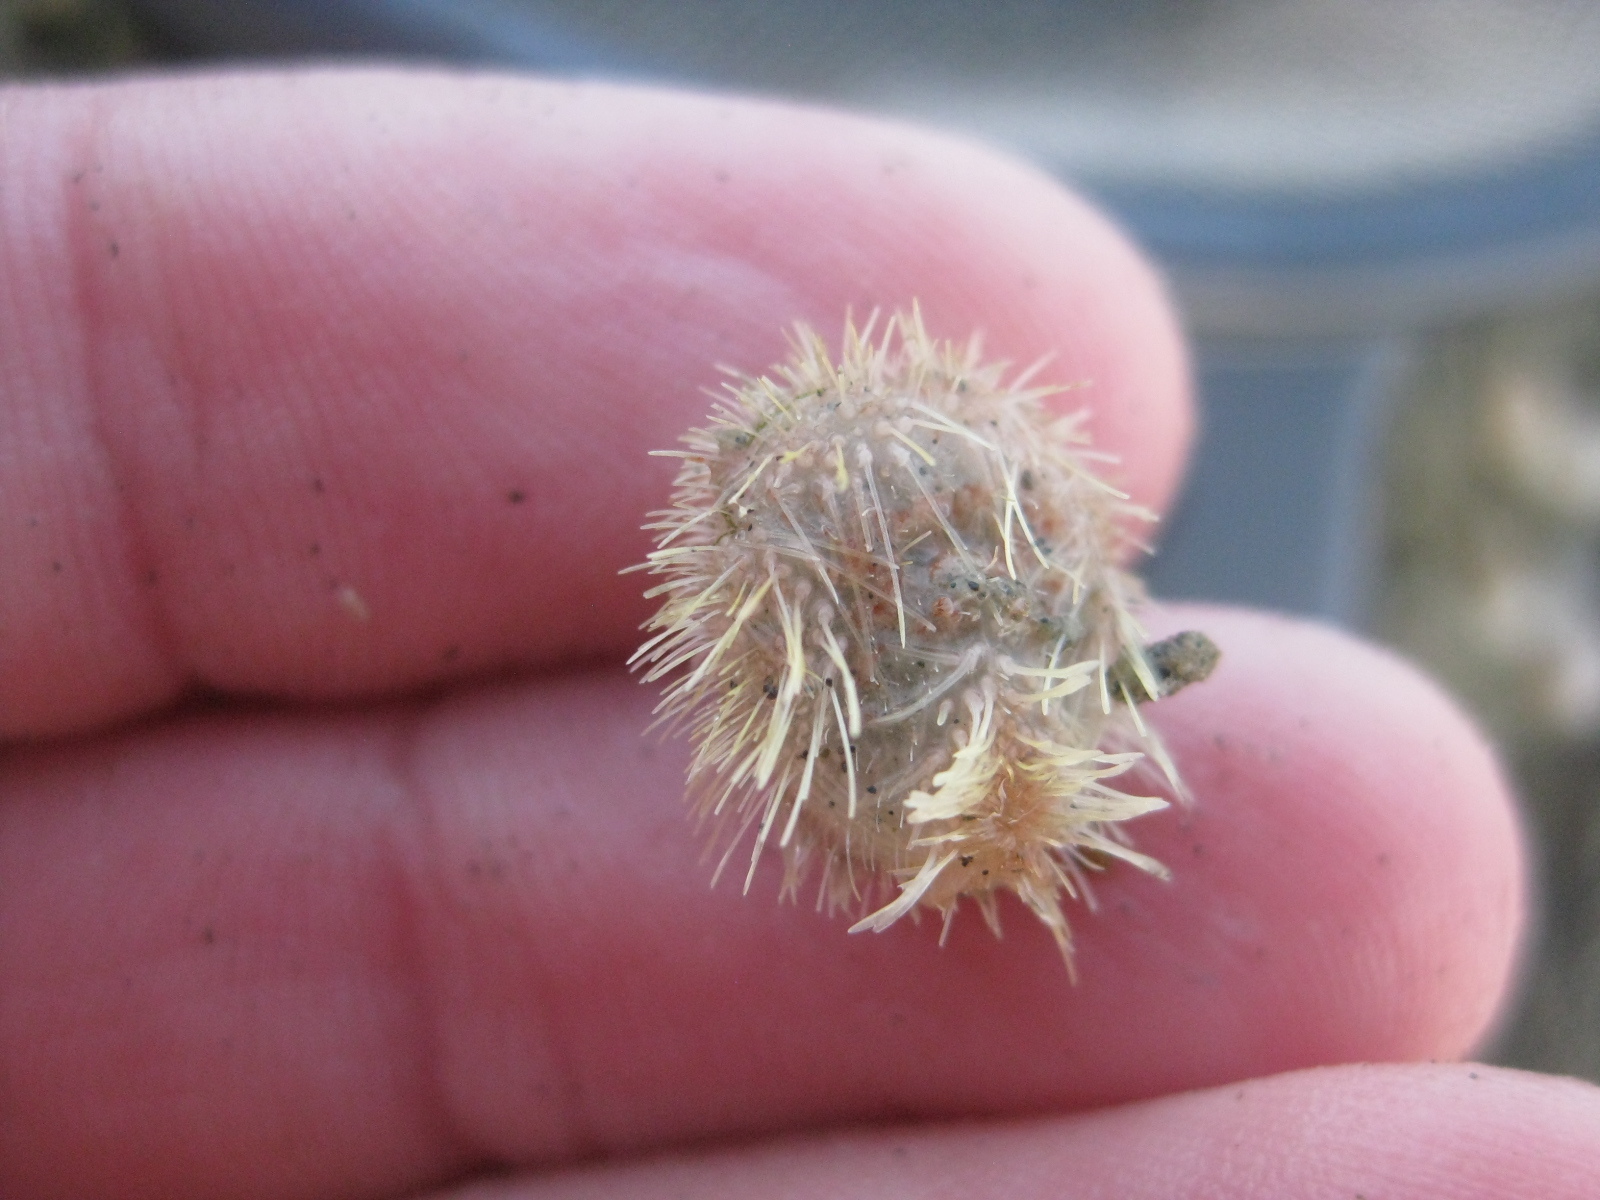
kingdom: Animalia
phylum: Echinodermata
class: Echinoidea
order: Spatangoida
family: Loveniidae
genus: Echinocardium
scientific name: Echinocardium cordatum
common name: Heart-urchin
